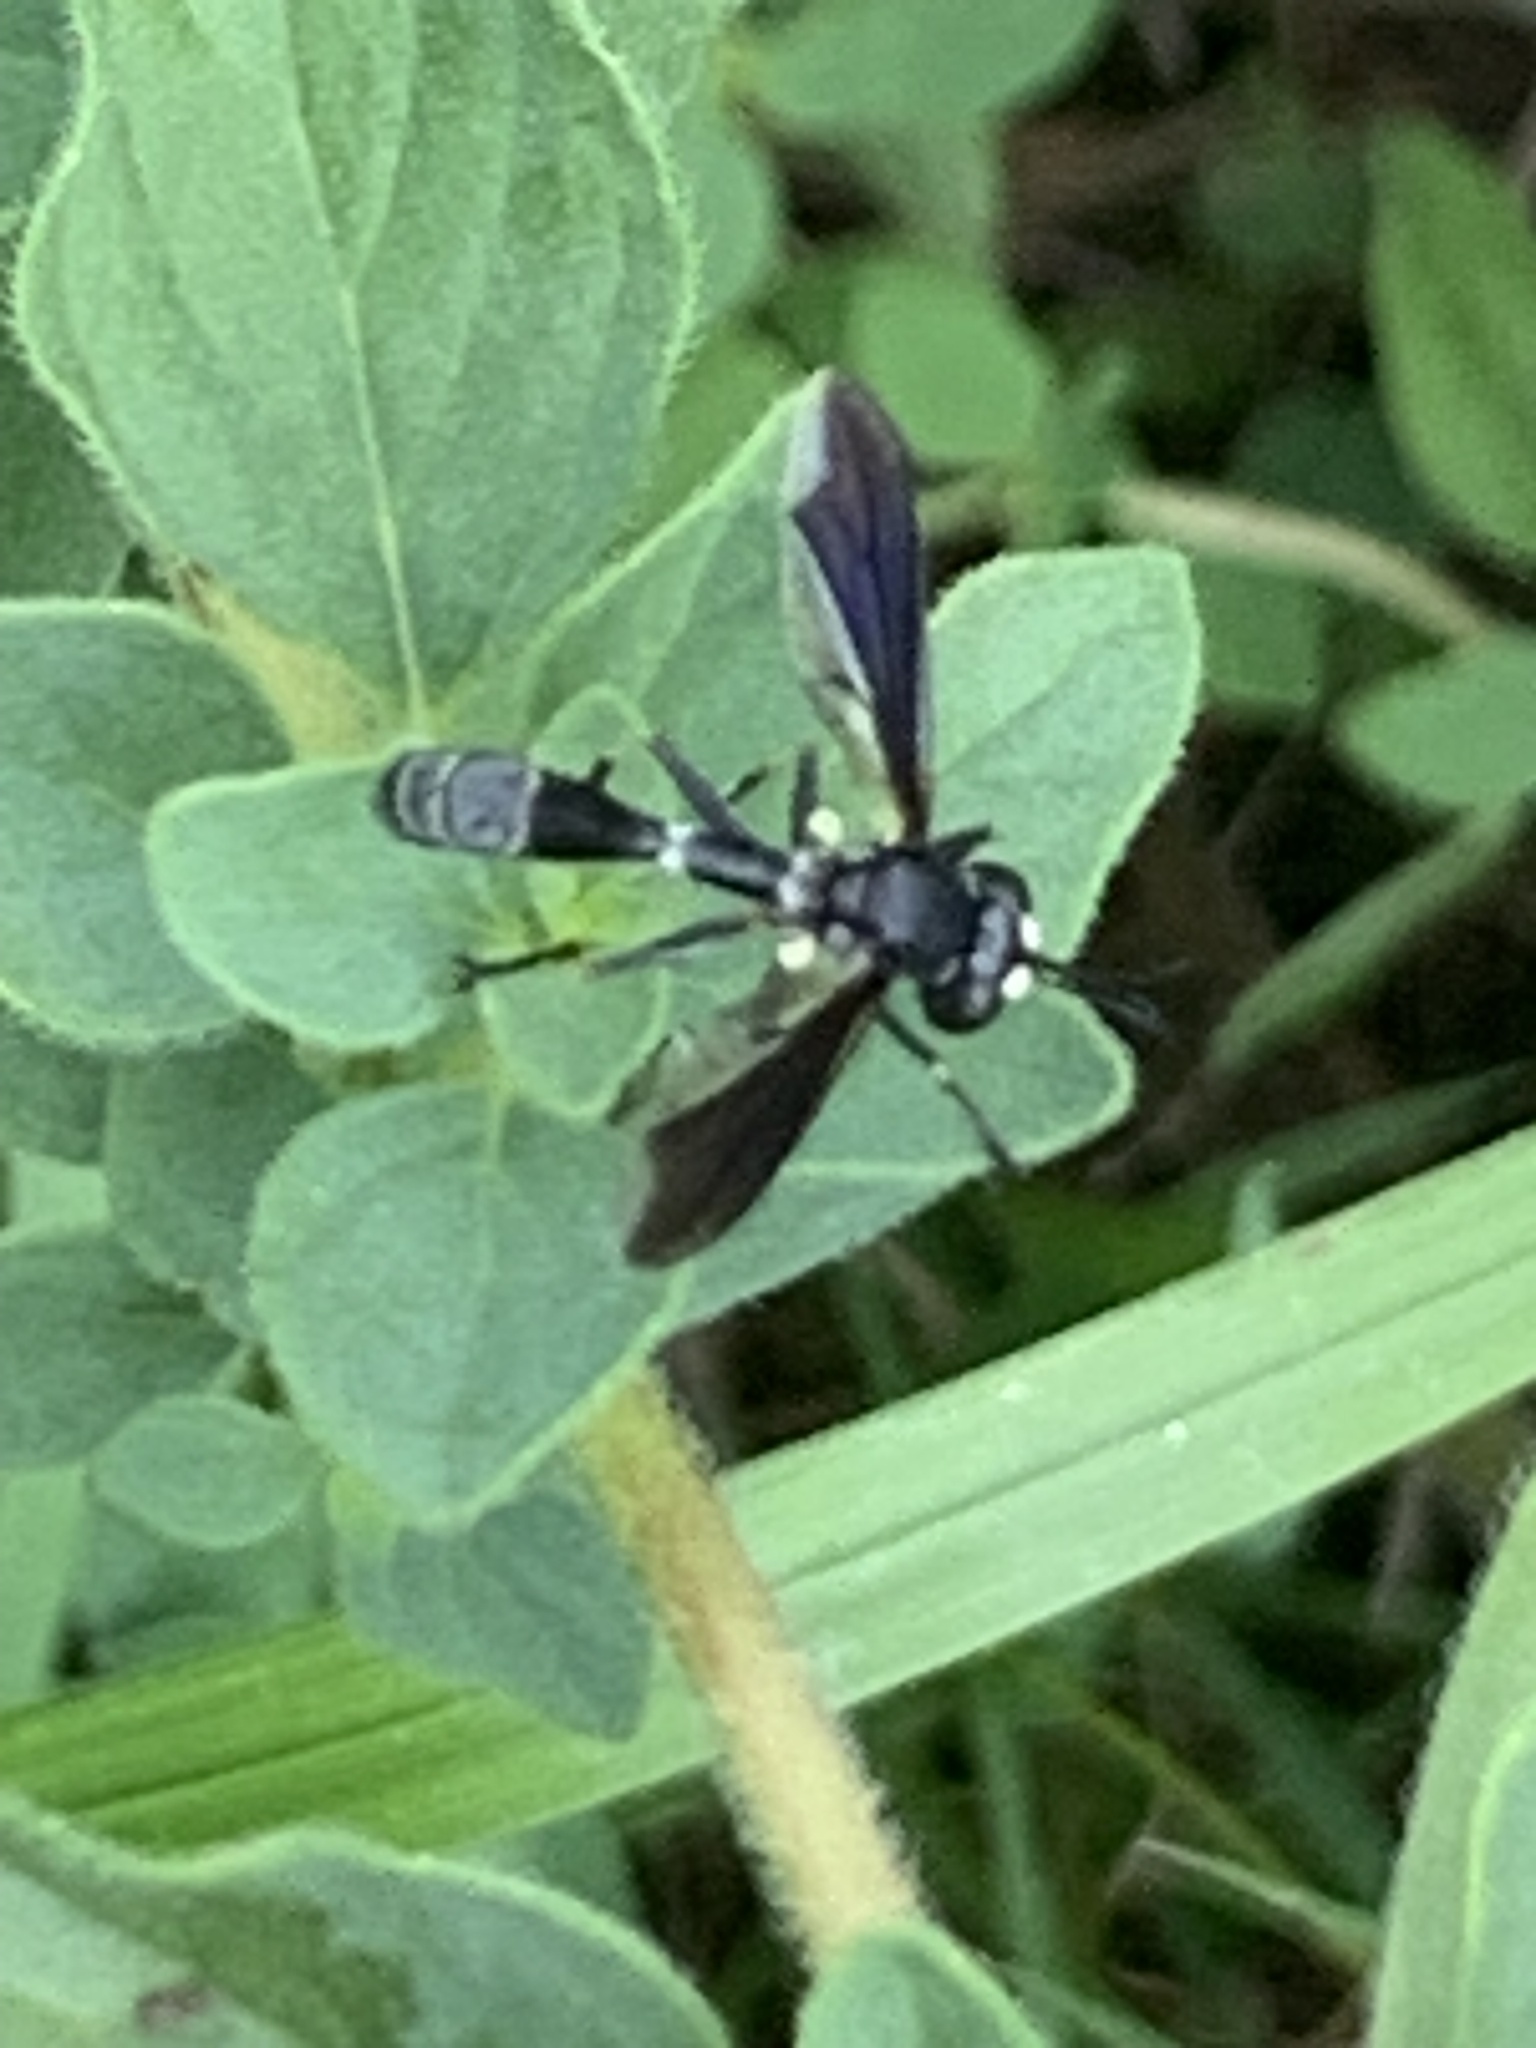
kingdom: Animalia
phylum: Arthropoda
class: Insecta
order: Diptera
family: Conopidae
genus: Physocephala
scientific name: Physocephala tibialis
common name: Common eastern physocephala
